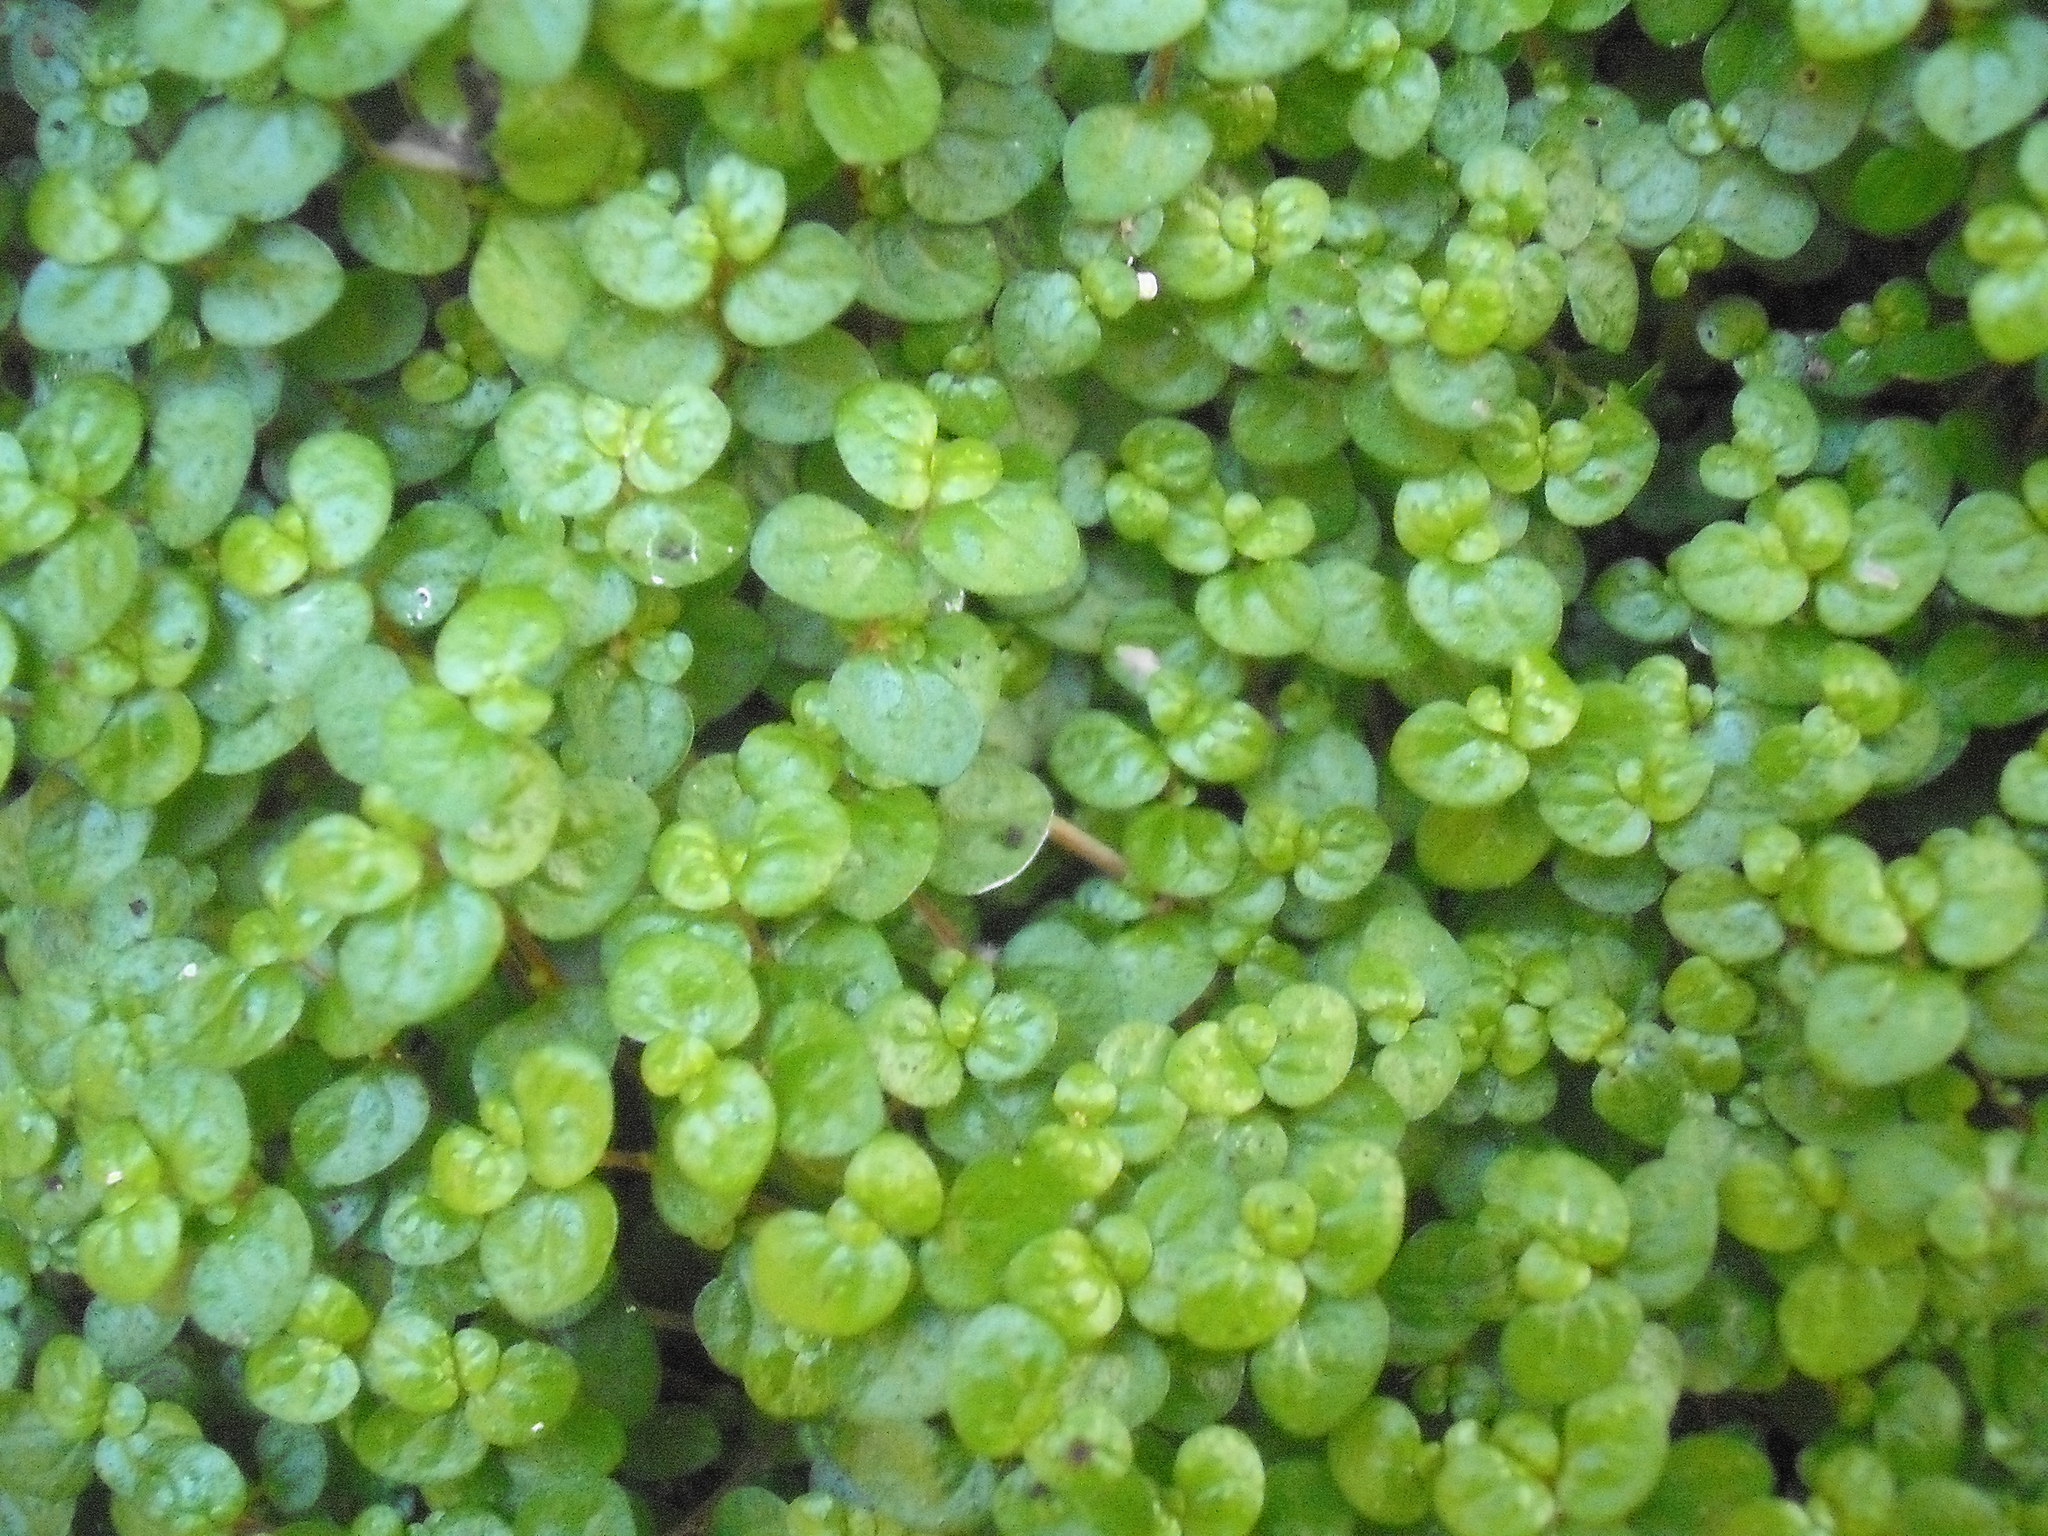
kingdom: Plantae
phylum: Tracheophyta
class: Magnoliopsida
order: Rosales
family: Urticaceae
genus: Soleirolia
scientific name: Soleirolia soleirolii
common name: Mind-your-own-business
